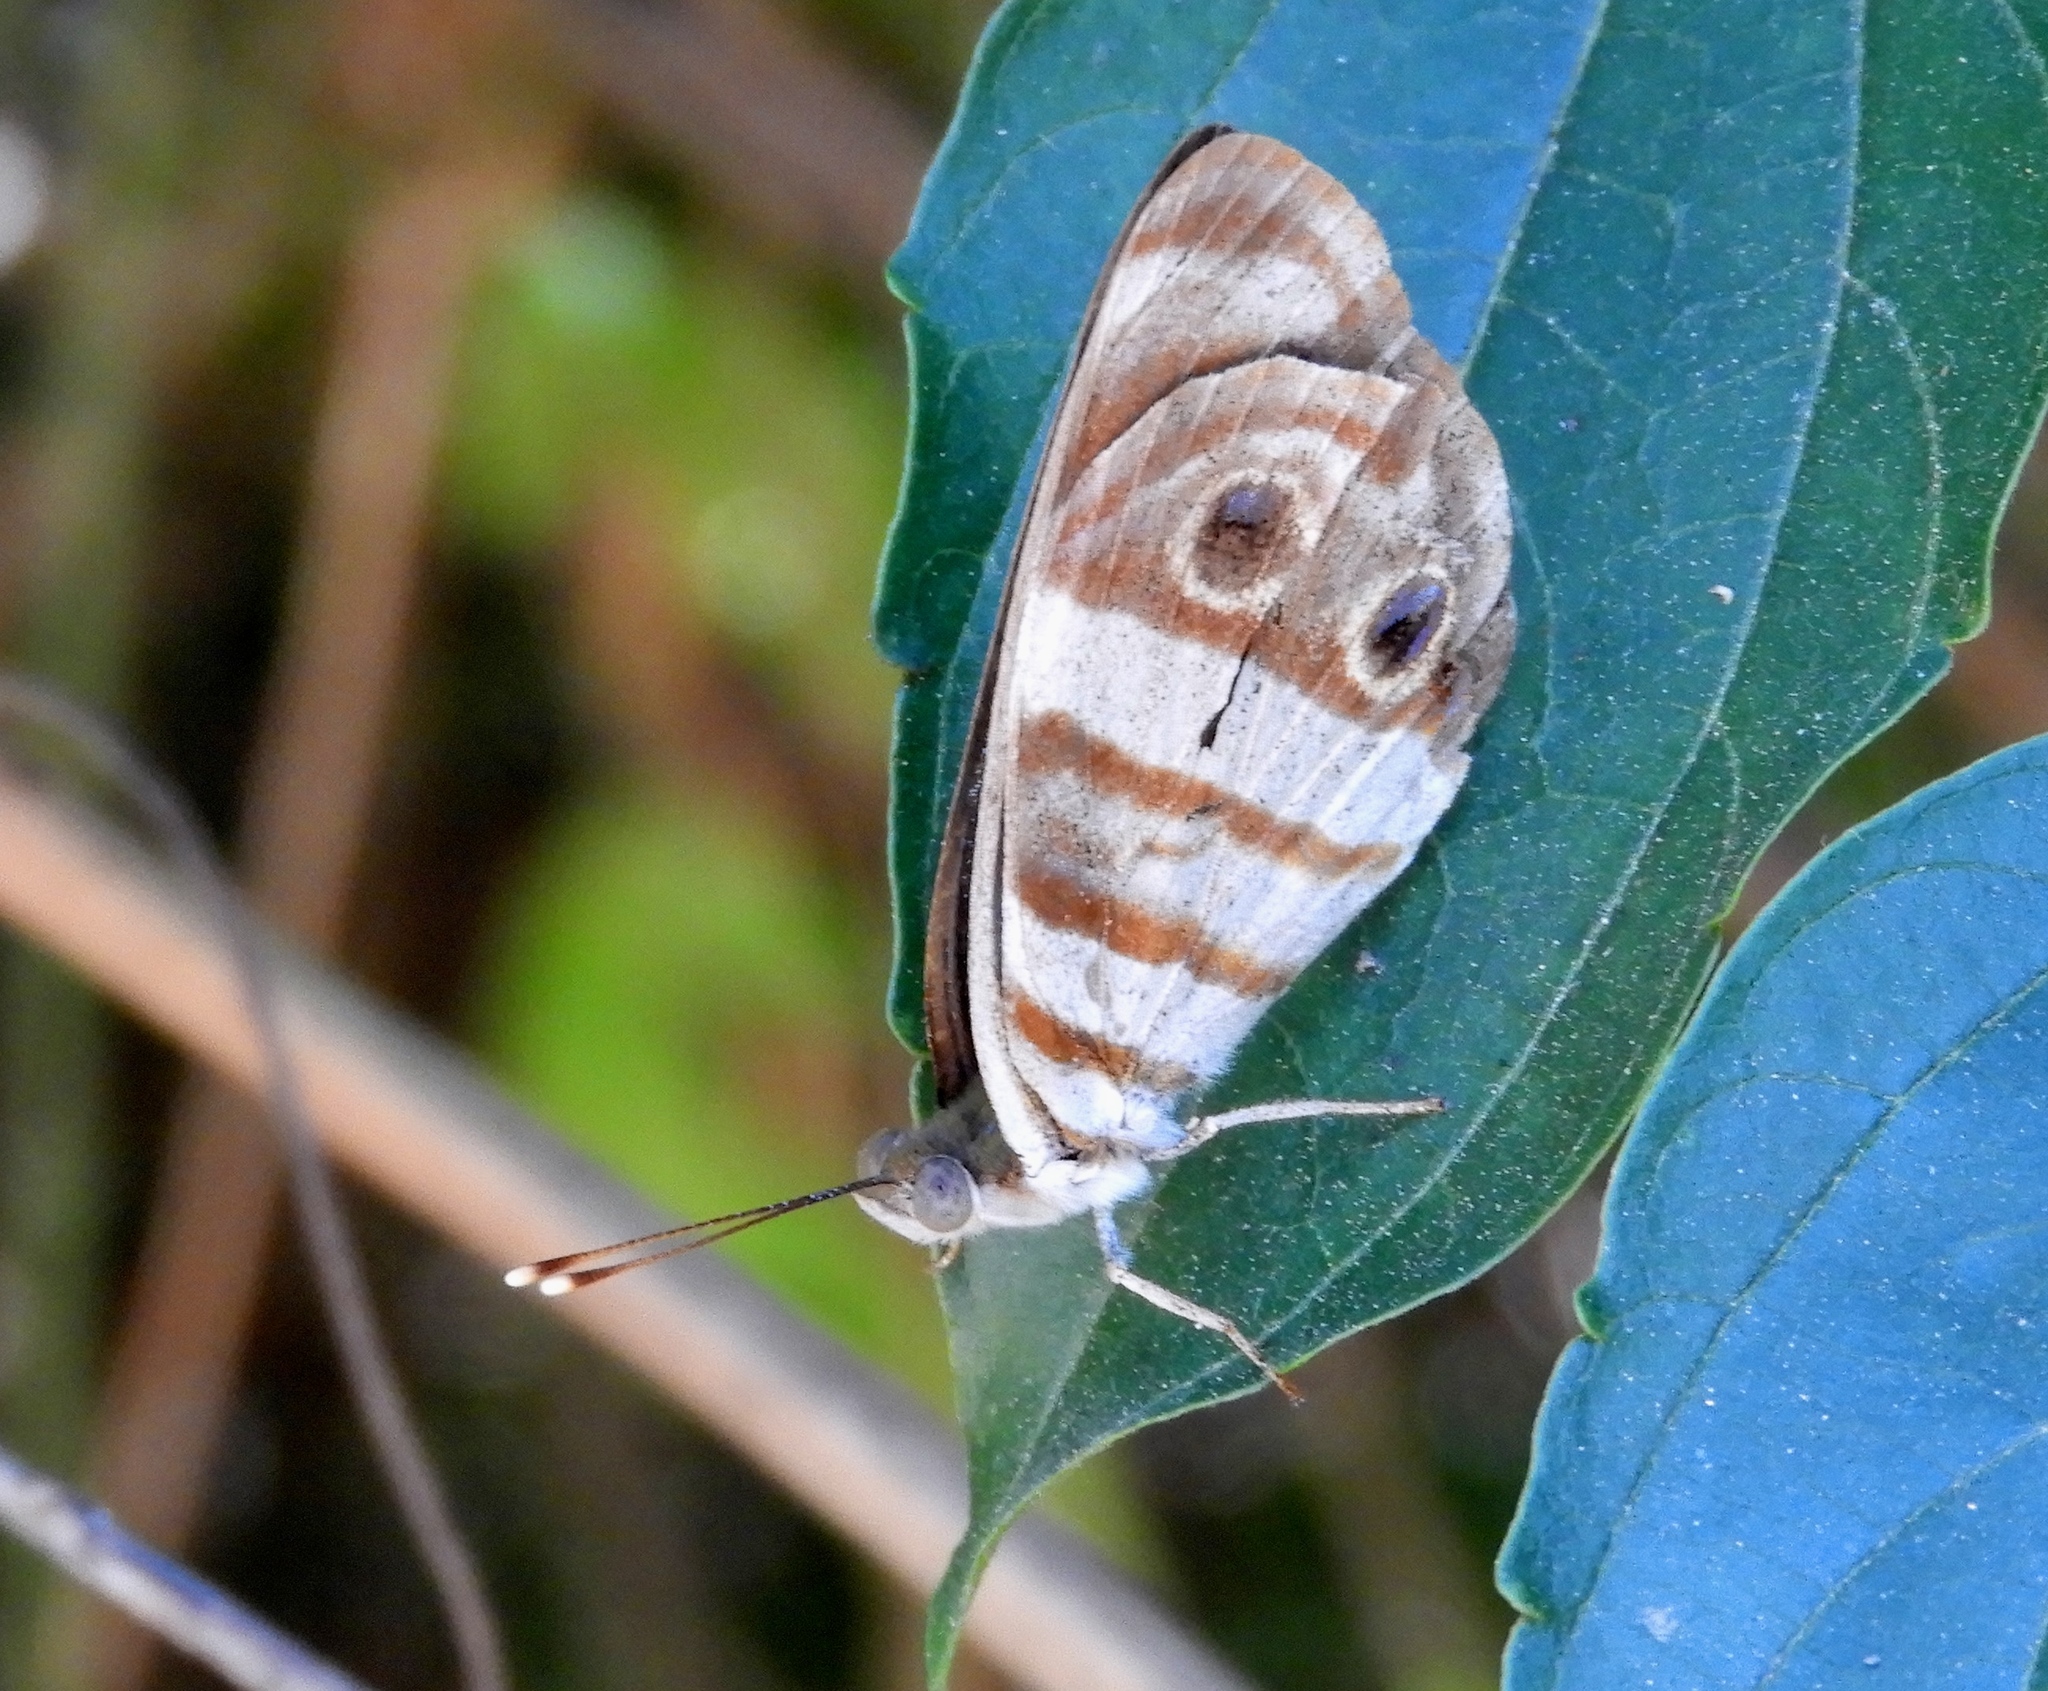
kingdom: Animalia
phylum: Arthropoda
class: Insecta
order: Lepidoptera
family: Nymphalidae
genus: Dynamine
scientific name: Dynamine mylitta
